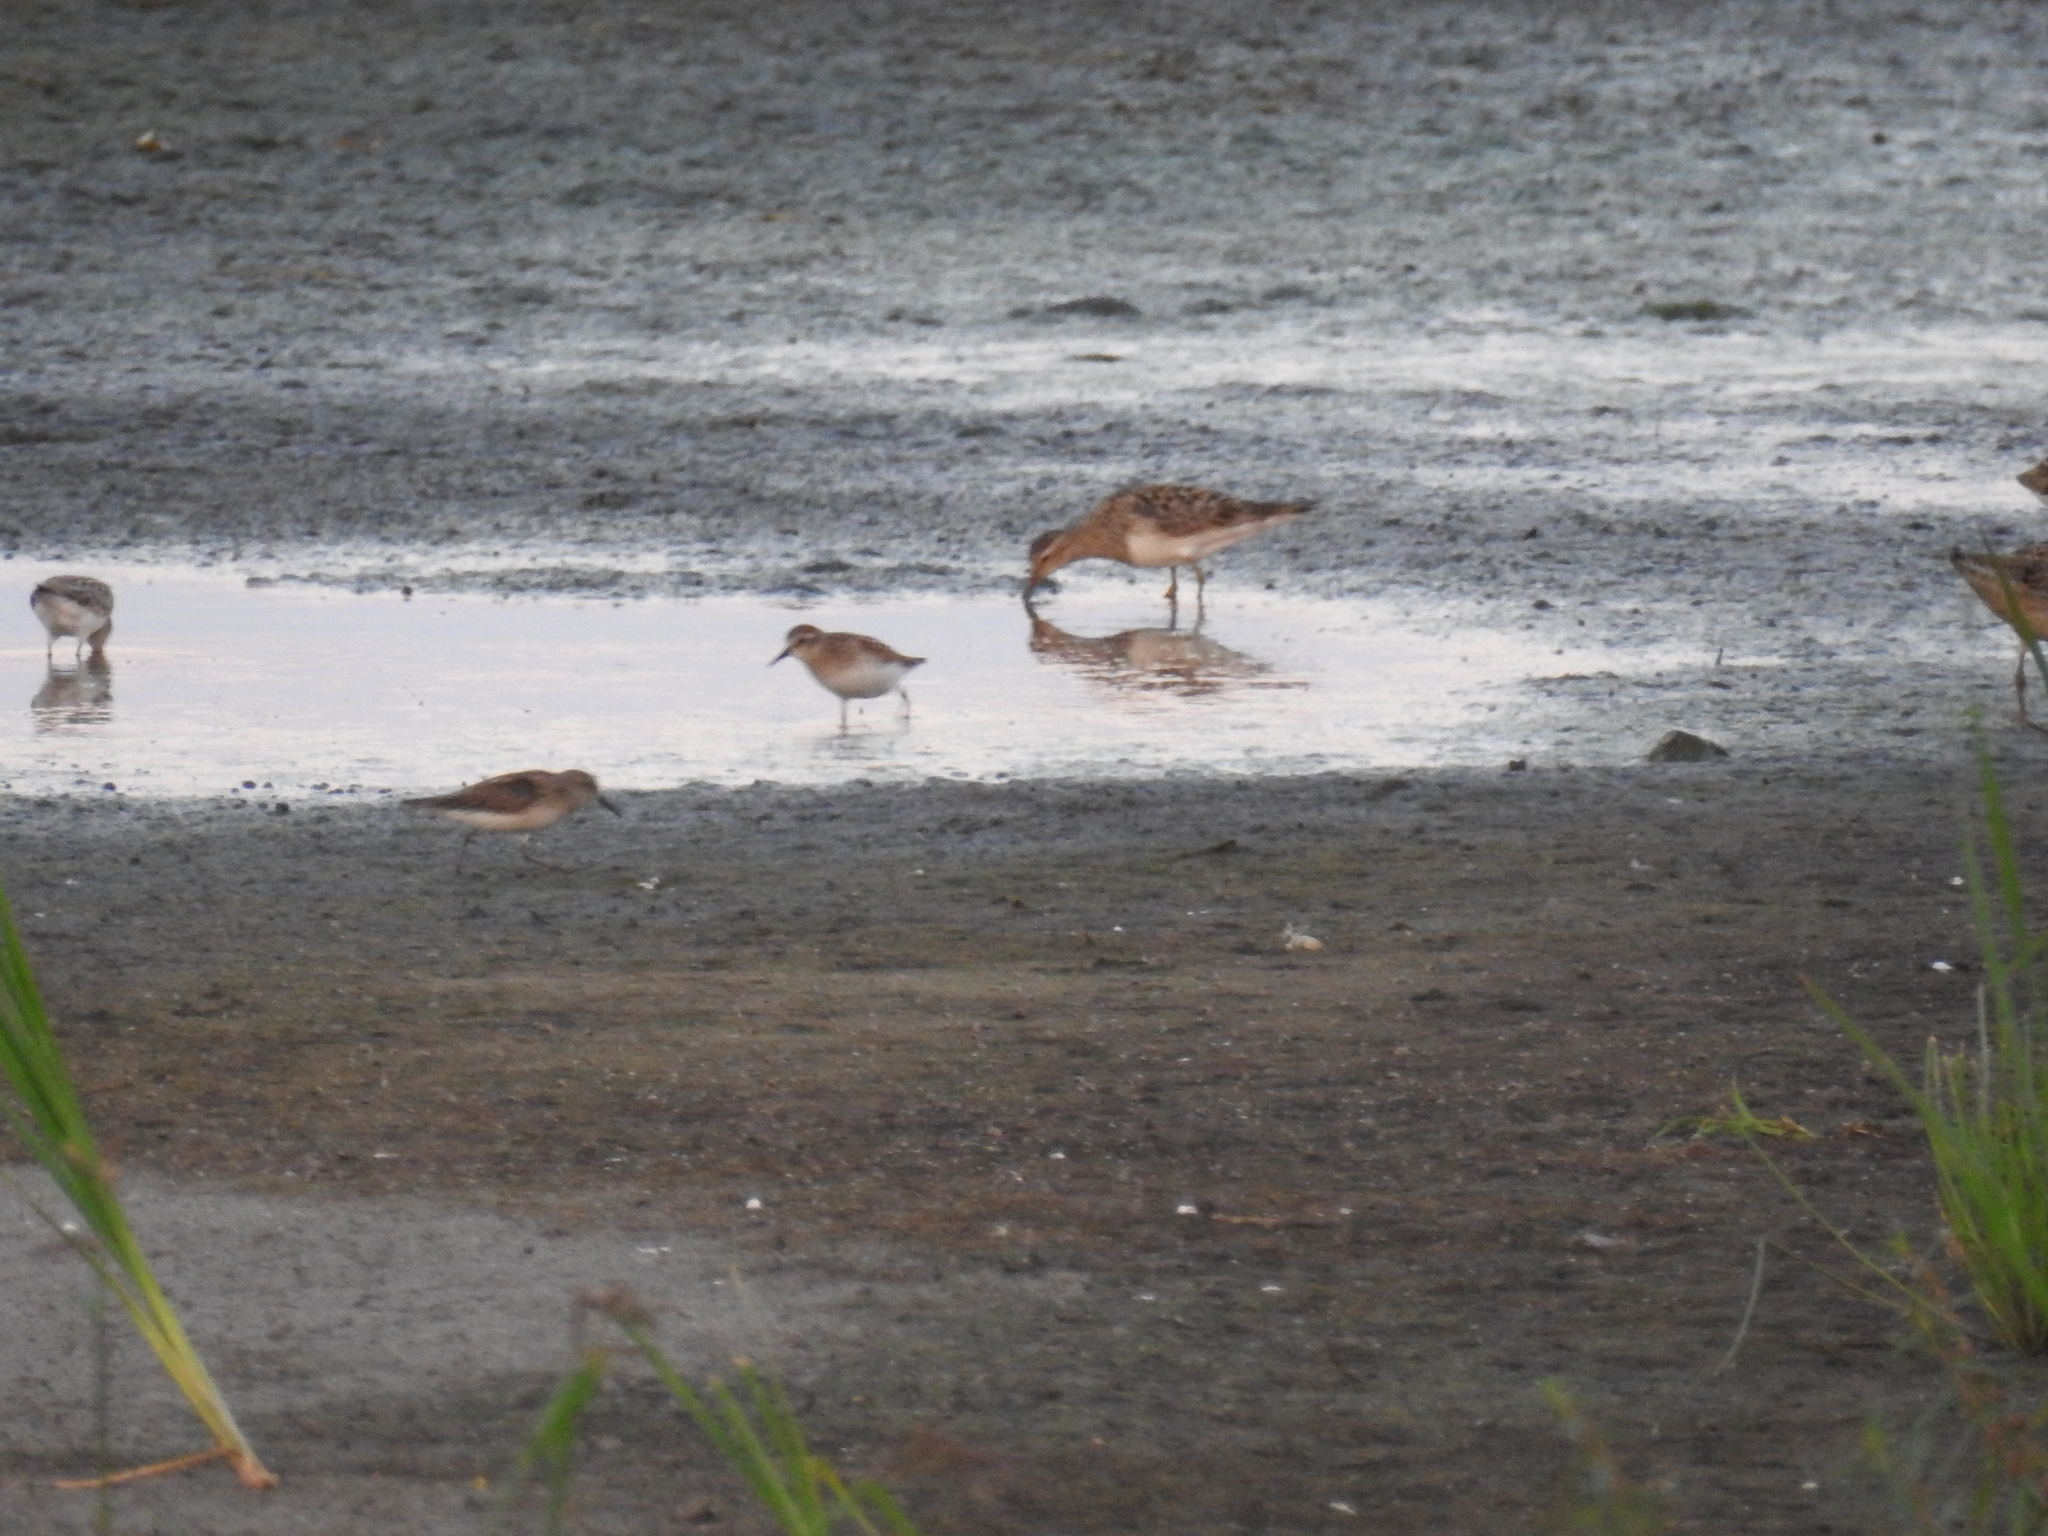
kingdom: Animalia
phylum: Chordata
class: Aves
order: Charadriiformes
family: Scolopacidae
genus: Calidris
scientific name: Calidris melanotos
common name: Pectoral sandpiper
